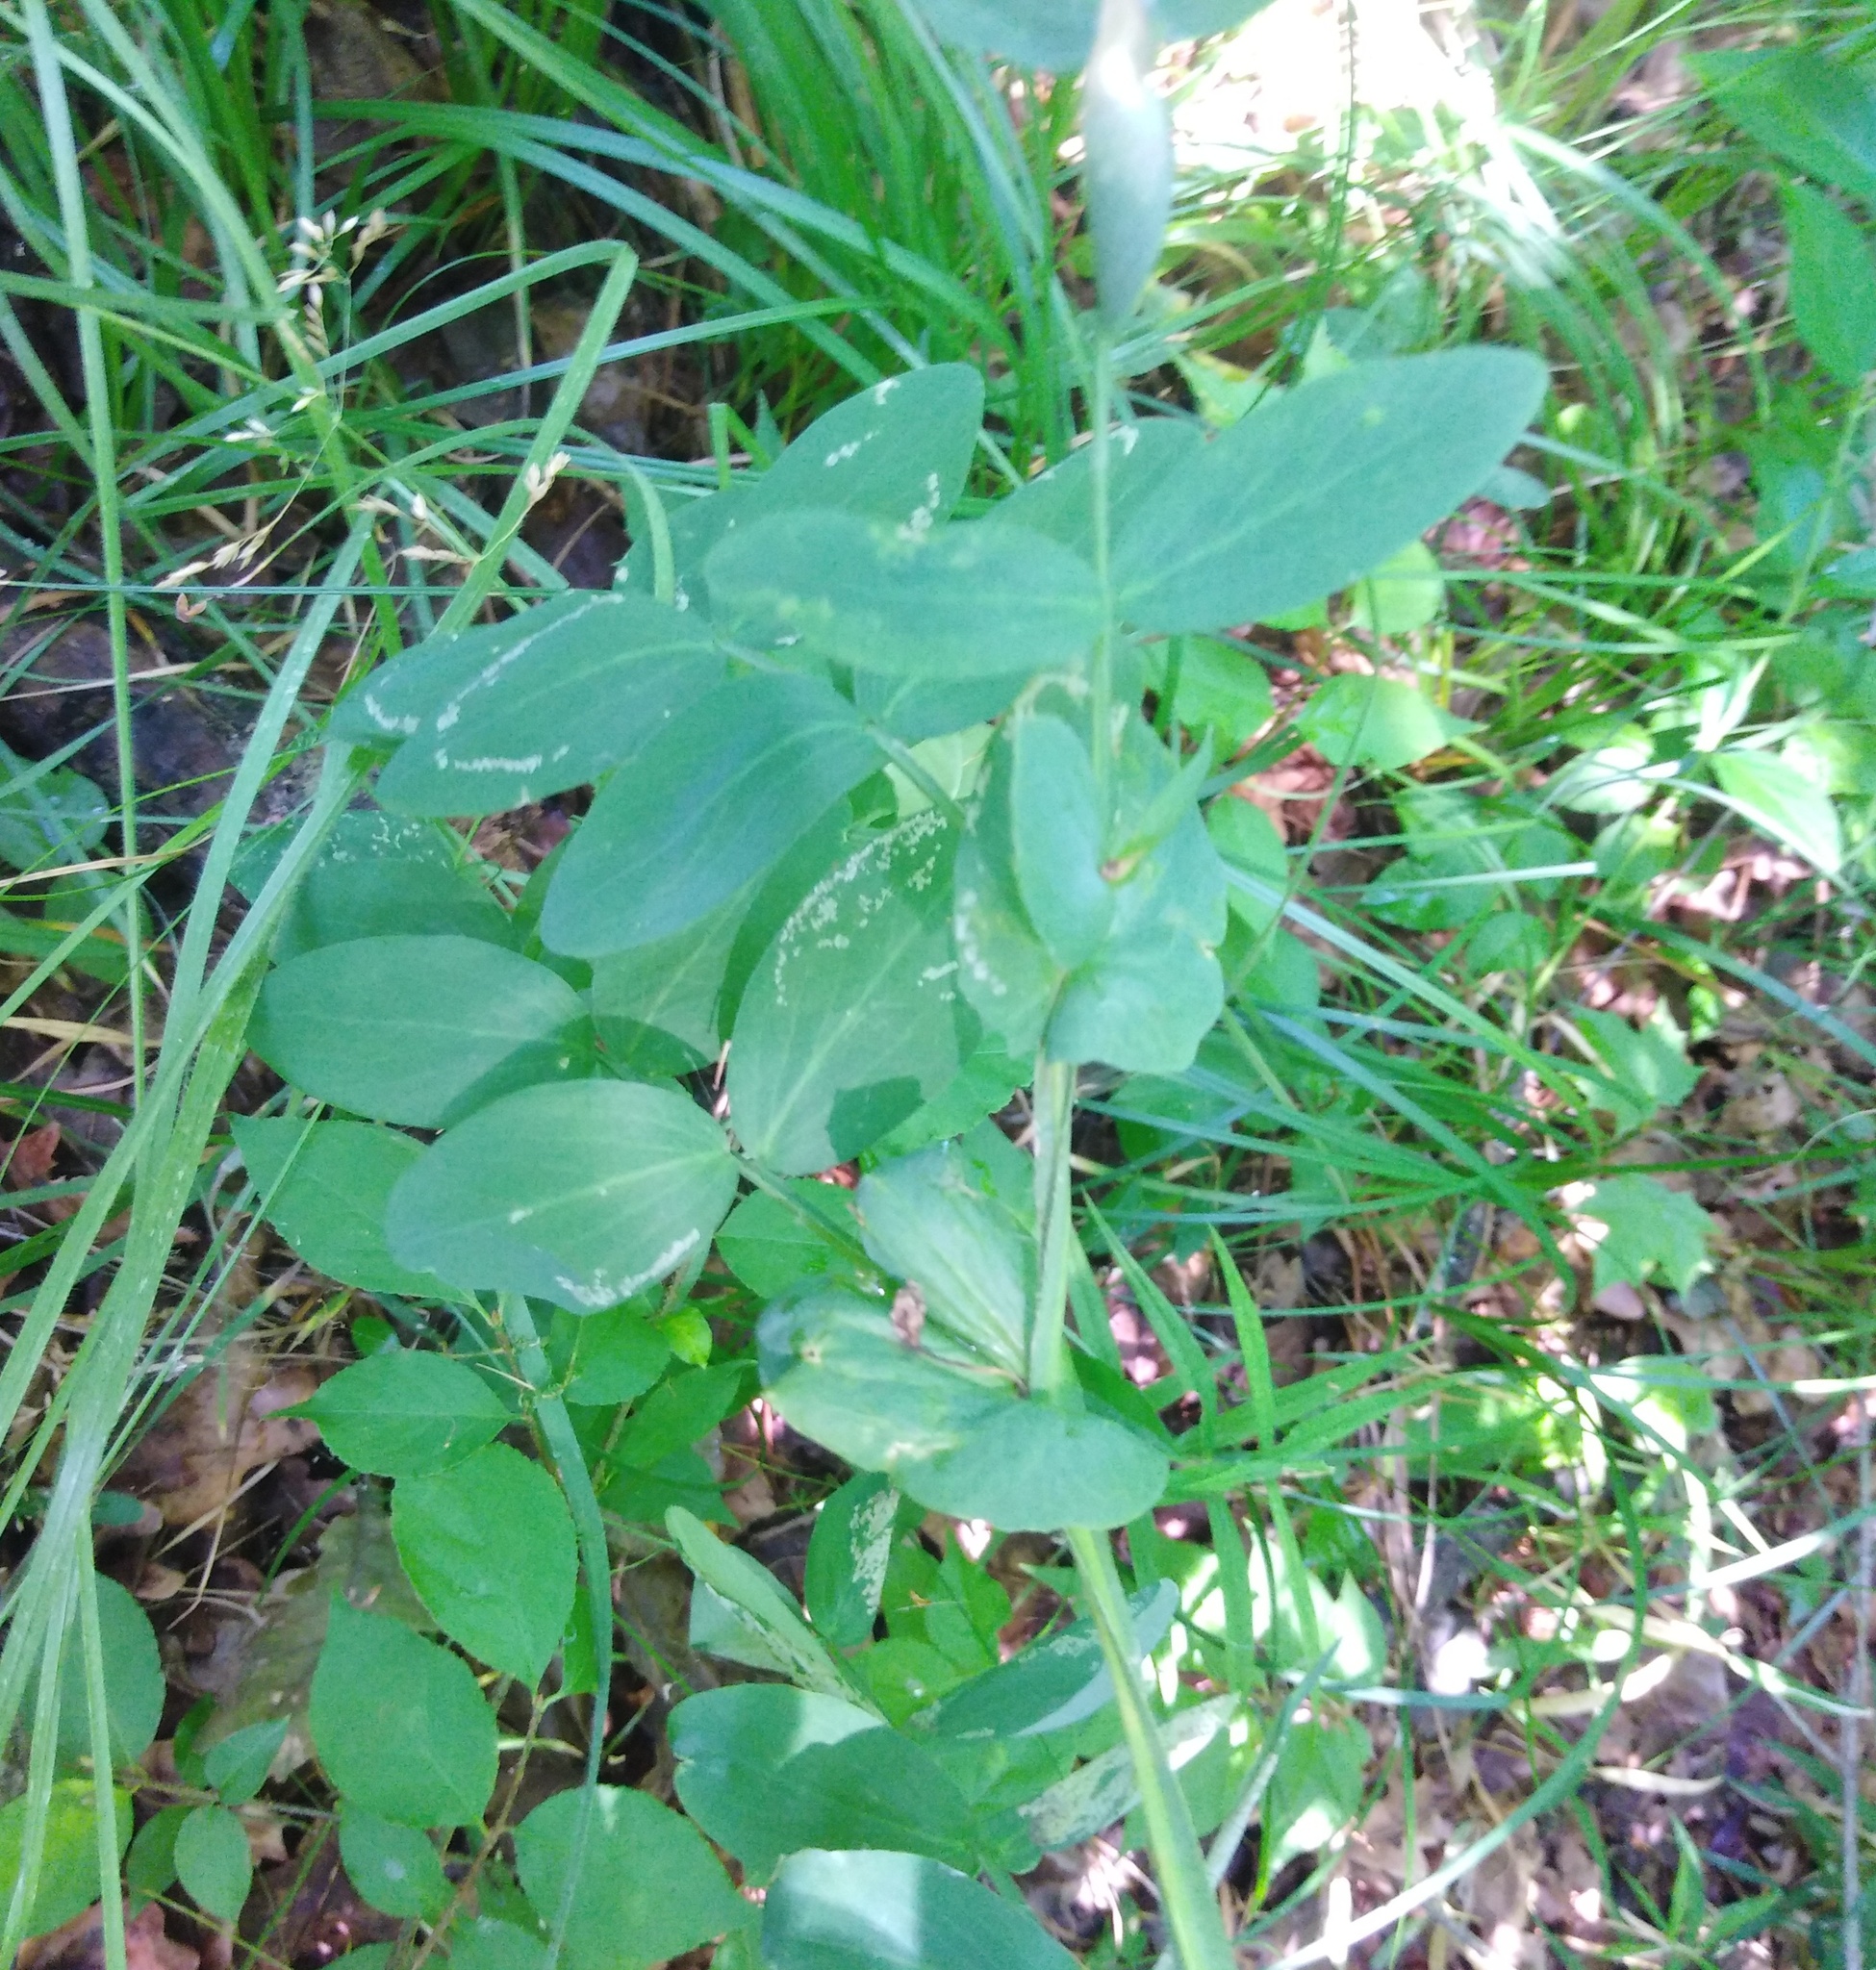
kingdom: Plantae
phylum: Tracheophyta
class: Magnoliopsida
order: Fabales
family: Fabaceae
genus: Lathyrus
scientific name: Lathyrus pisiformis
